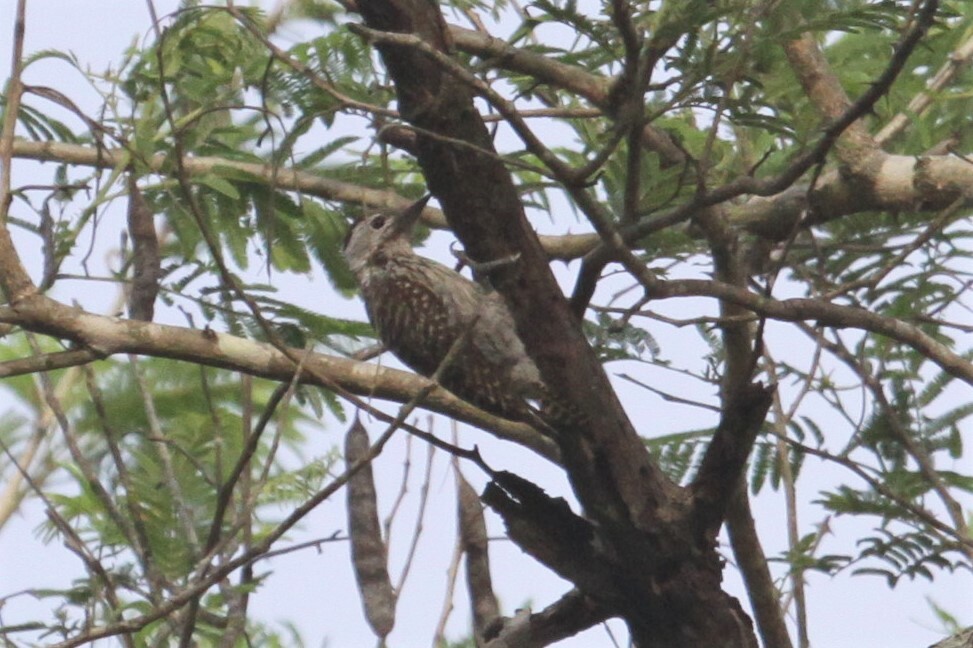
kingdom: Animalia
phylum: Chordata
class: Aves
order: Piciformes
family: Picidae
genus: Dendropicos
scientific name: Dendropicos fuscescens
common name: Cardinal woodpecker
